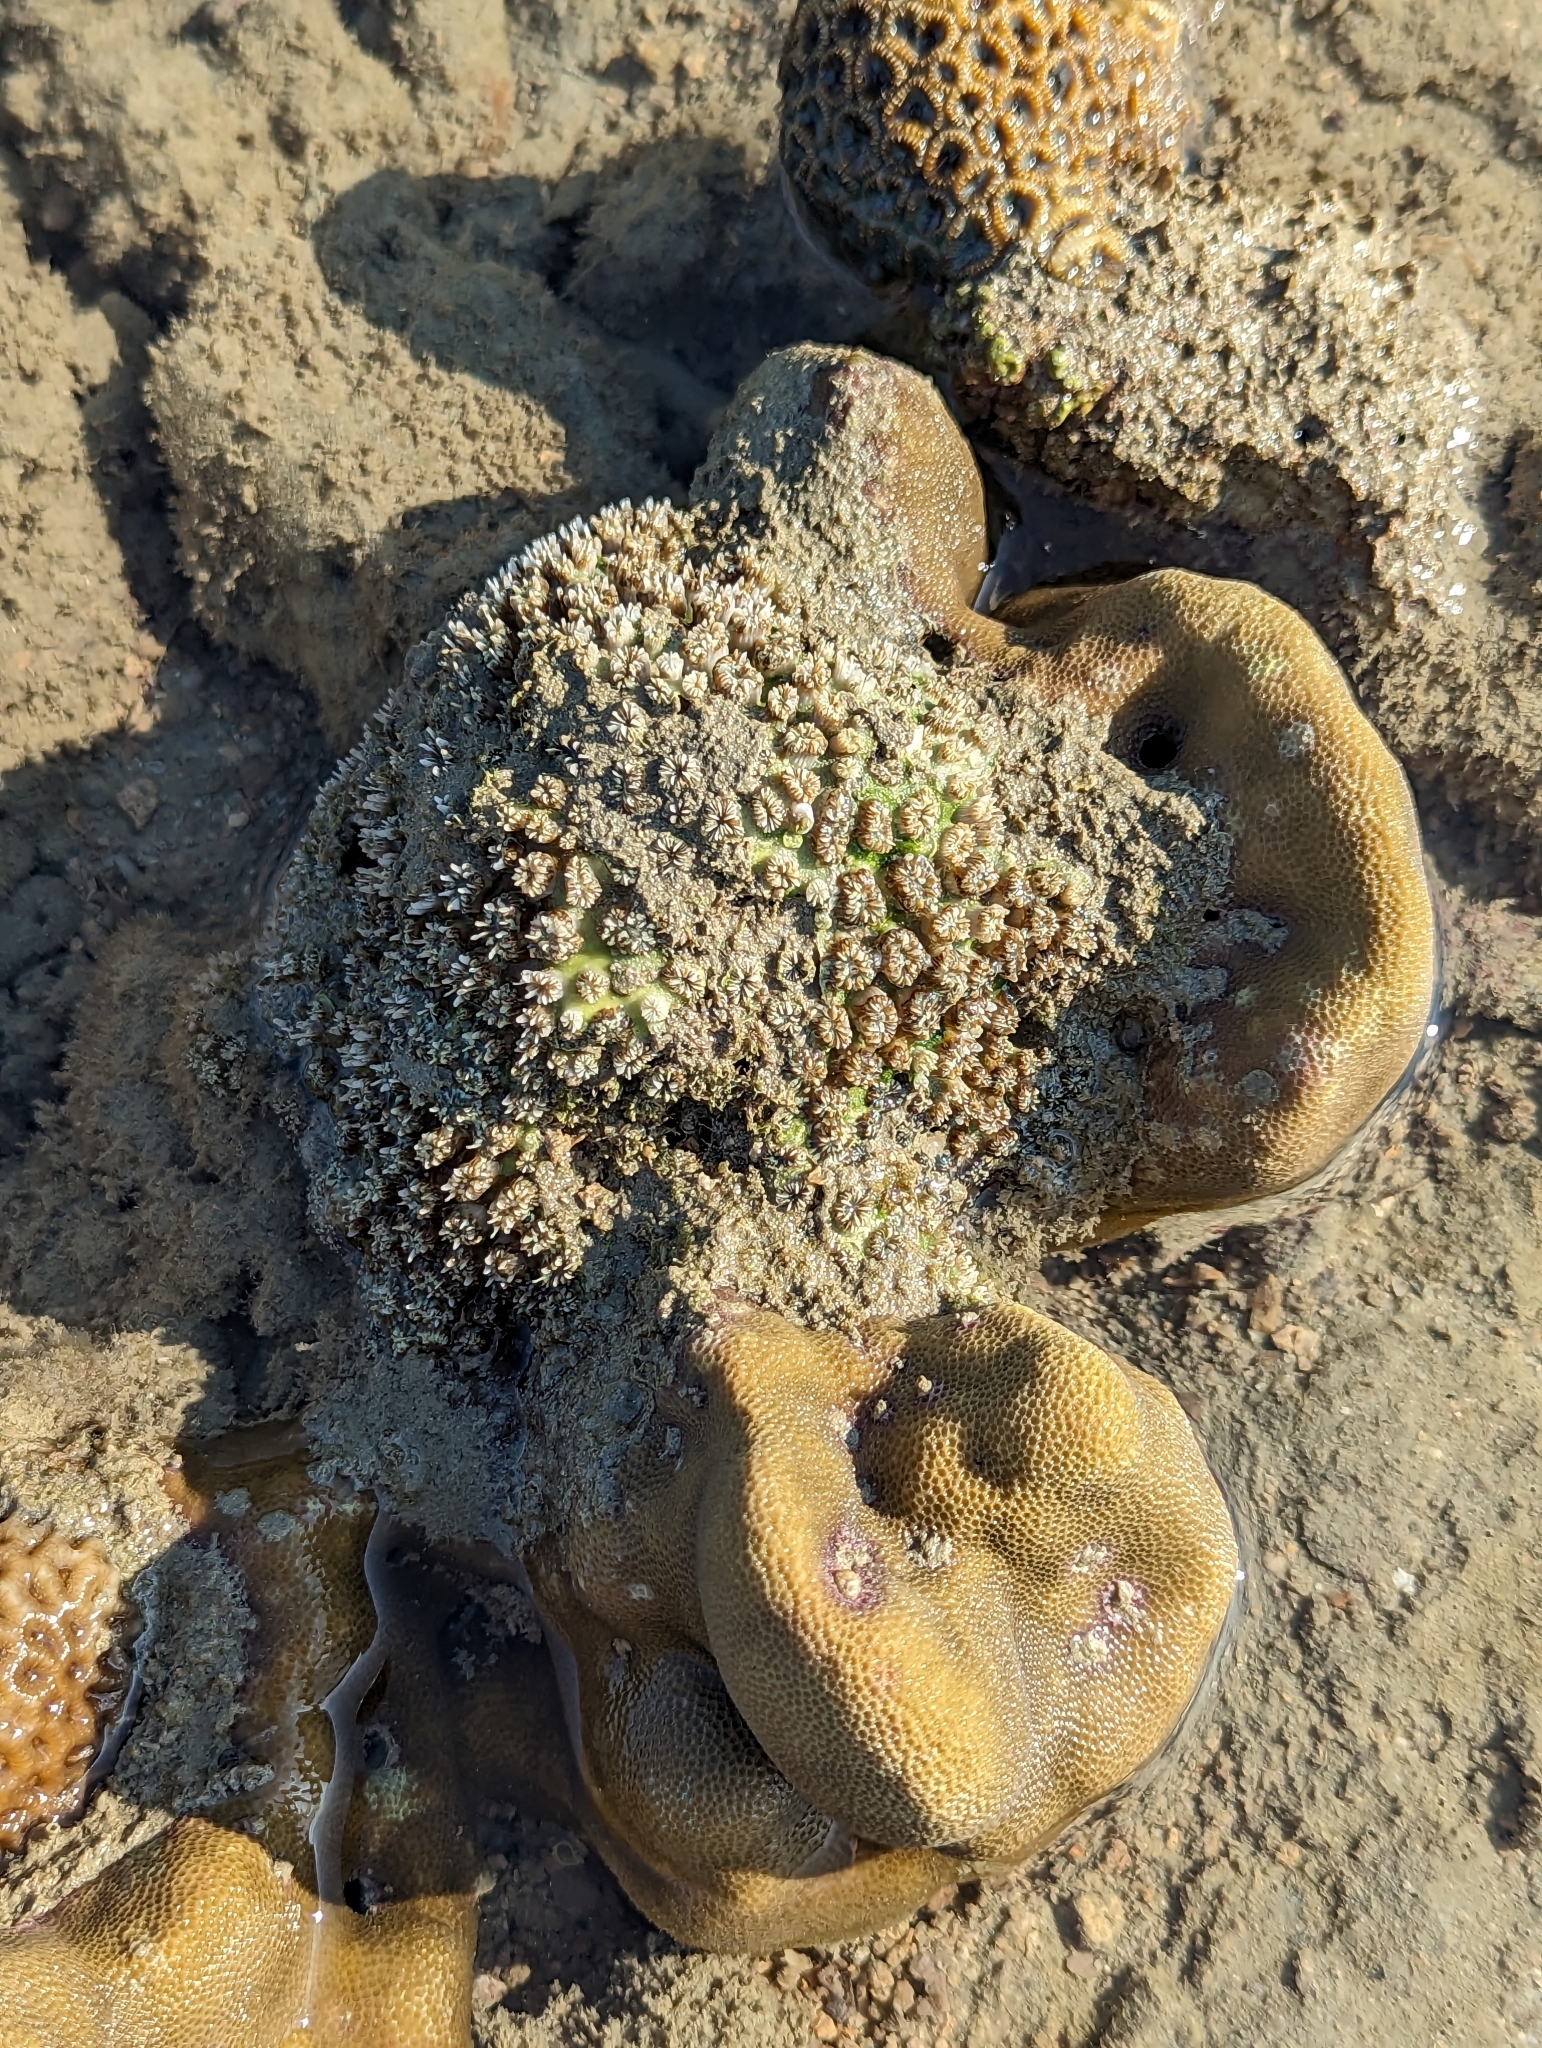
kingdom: Animalia
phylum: Cnidaria
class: Anthozoa
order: Scleractinia
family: Euphylliidae
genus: Galaxea
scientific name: Galaxea fascicularis
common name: Octopus coral
